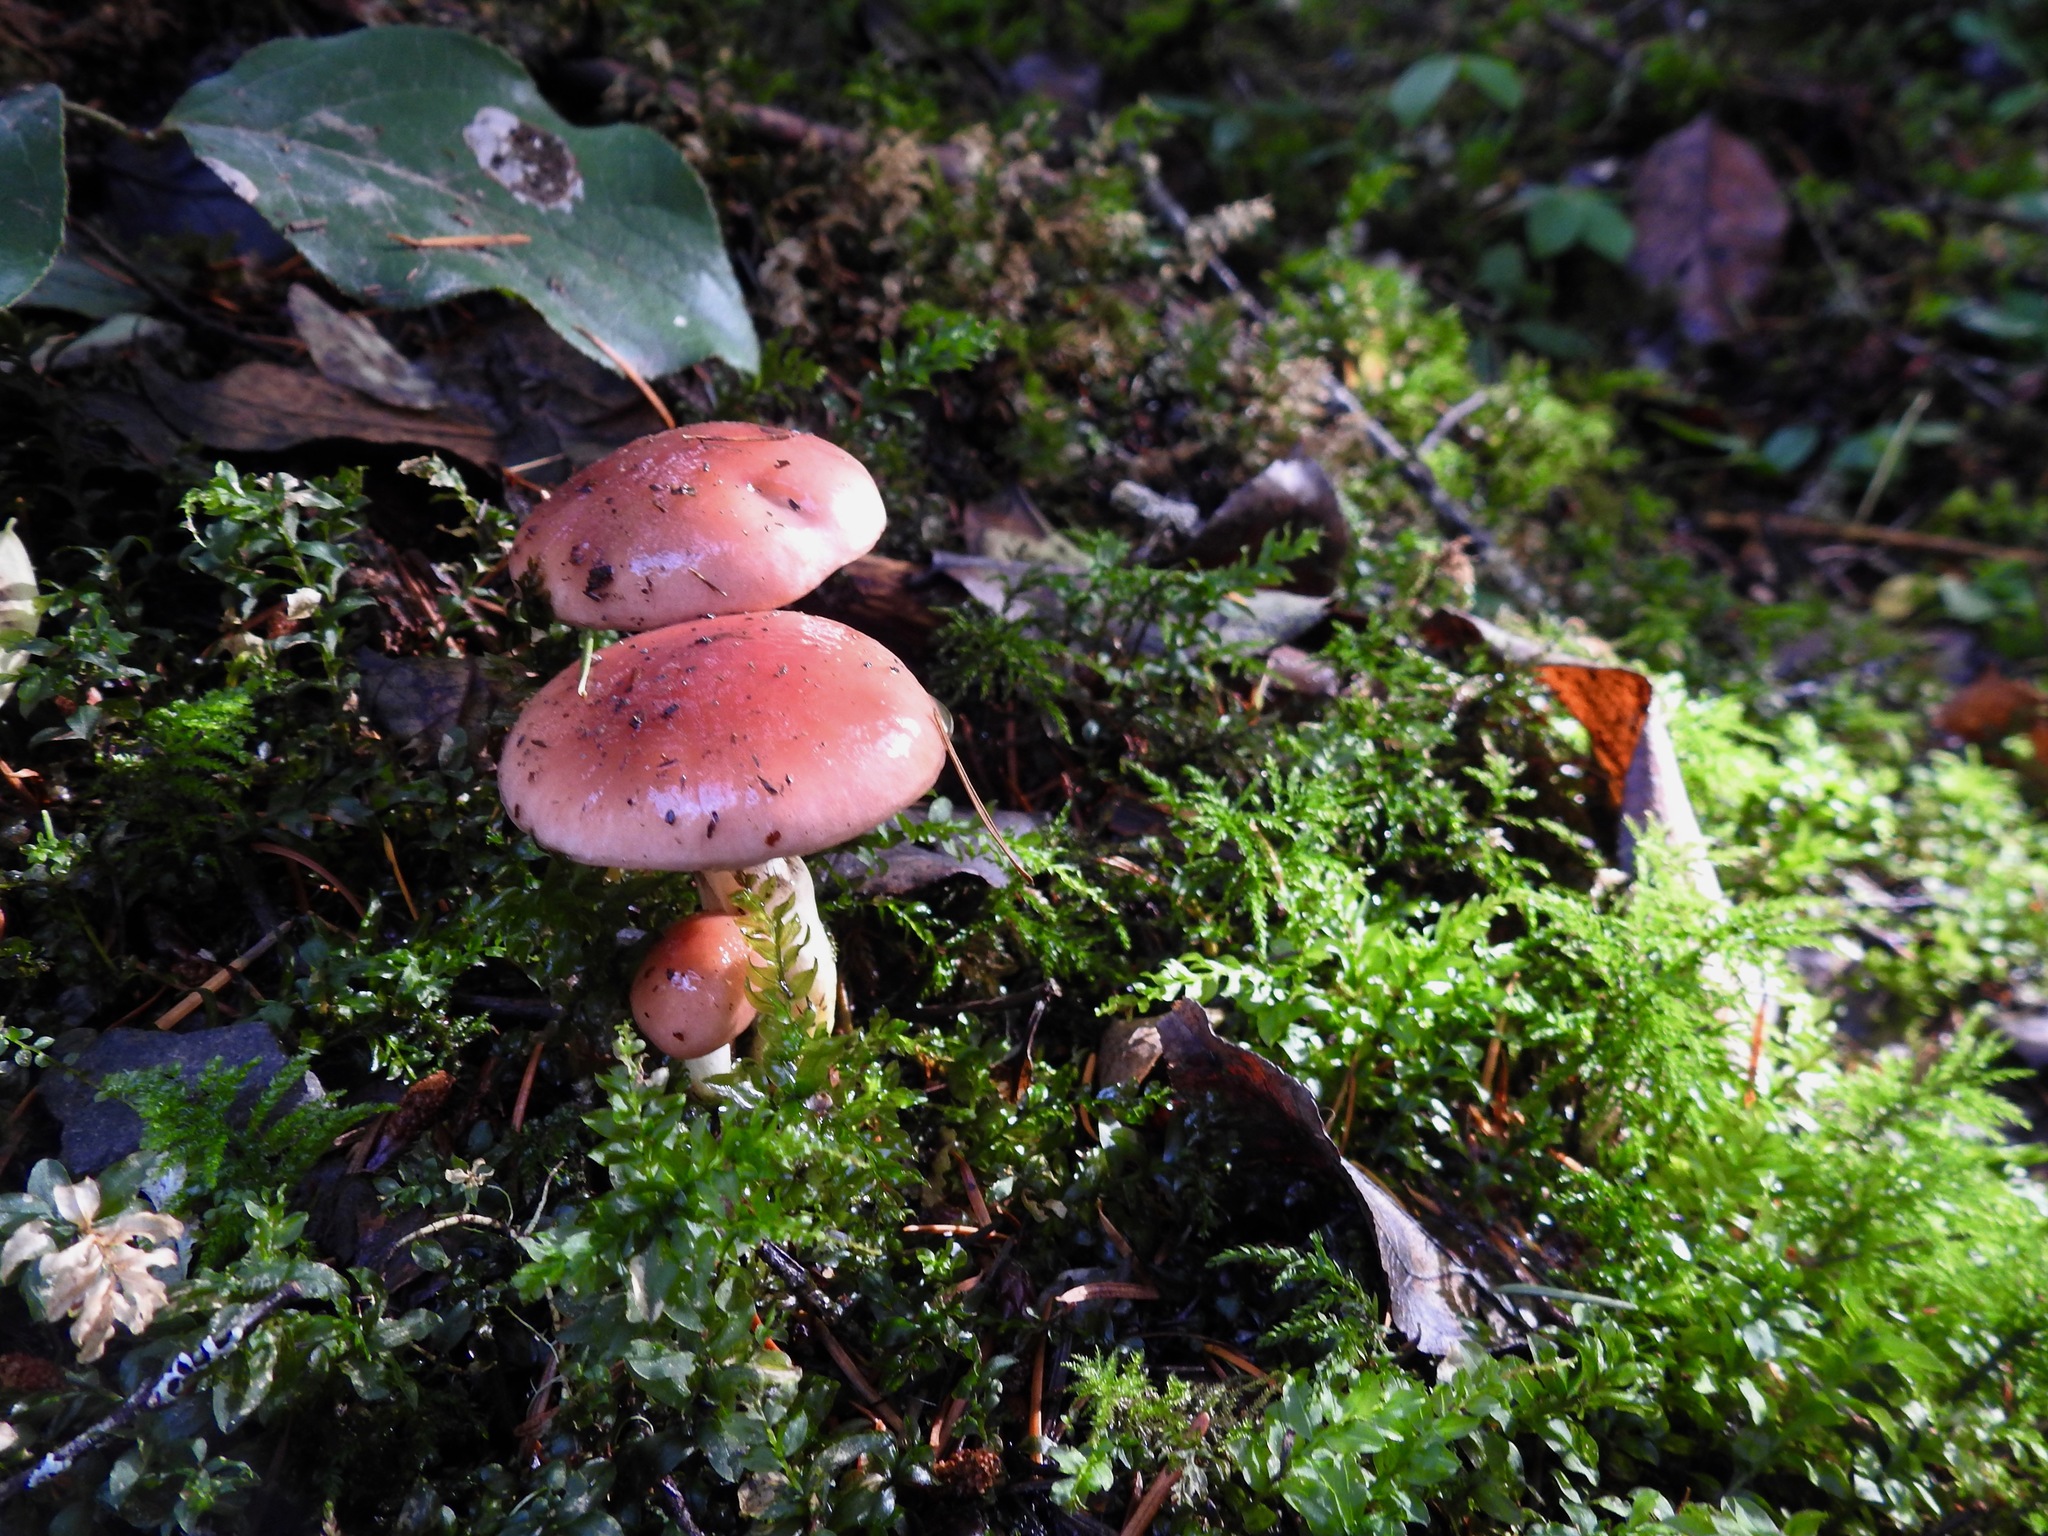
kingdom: Fungi
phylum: Basidiomycota
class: Agaricomycetes
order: Boletales
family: Gomphidiaceae
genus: Gomphidius
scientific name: Gomphidius subroseus
